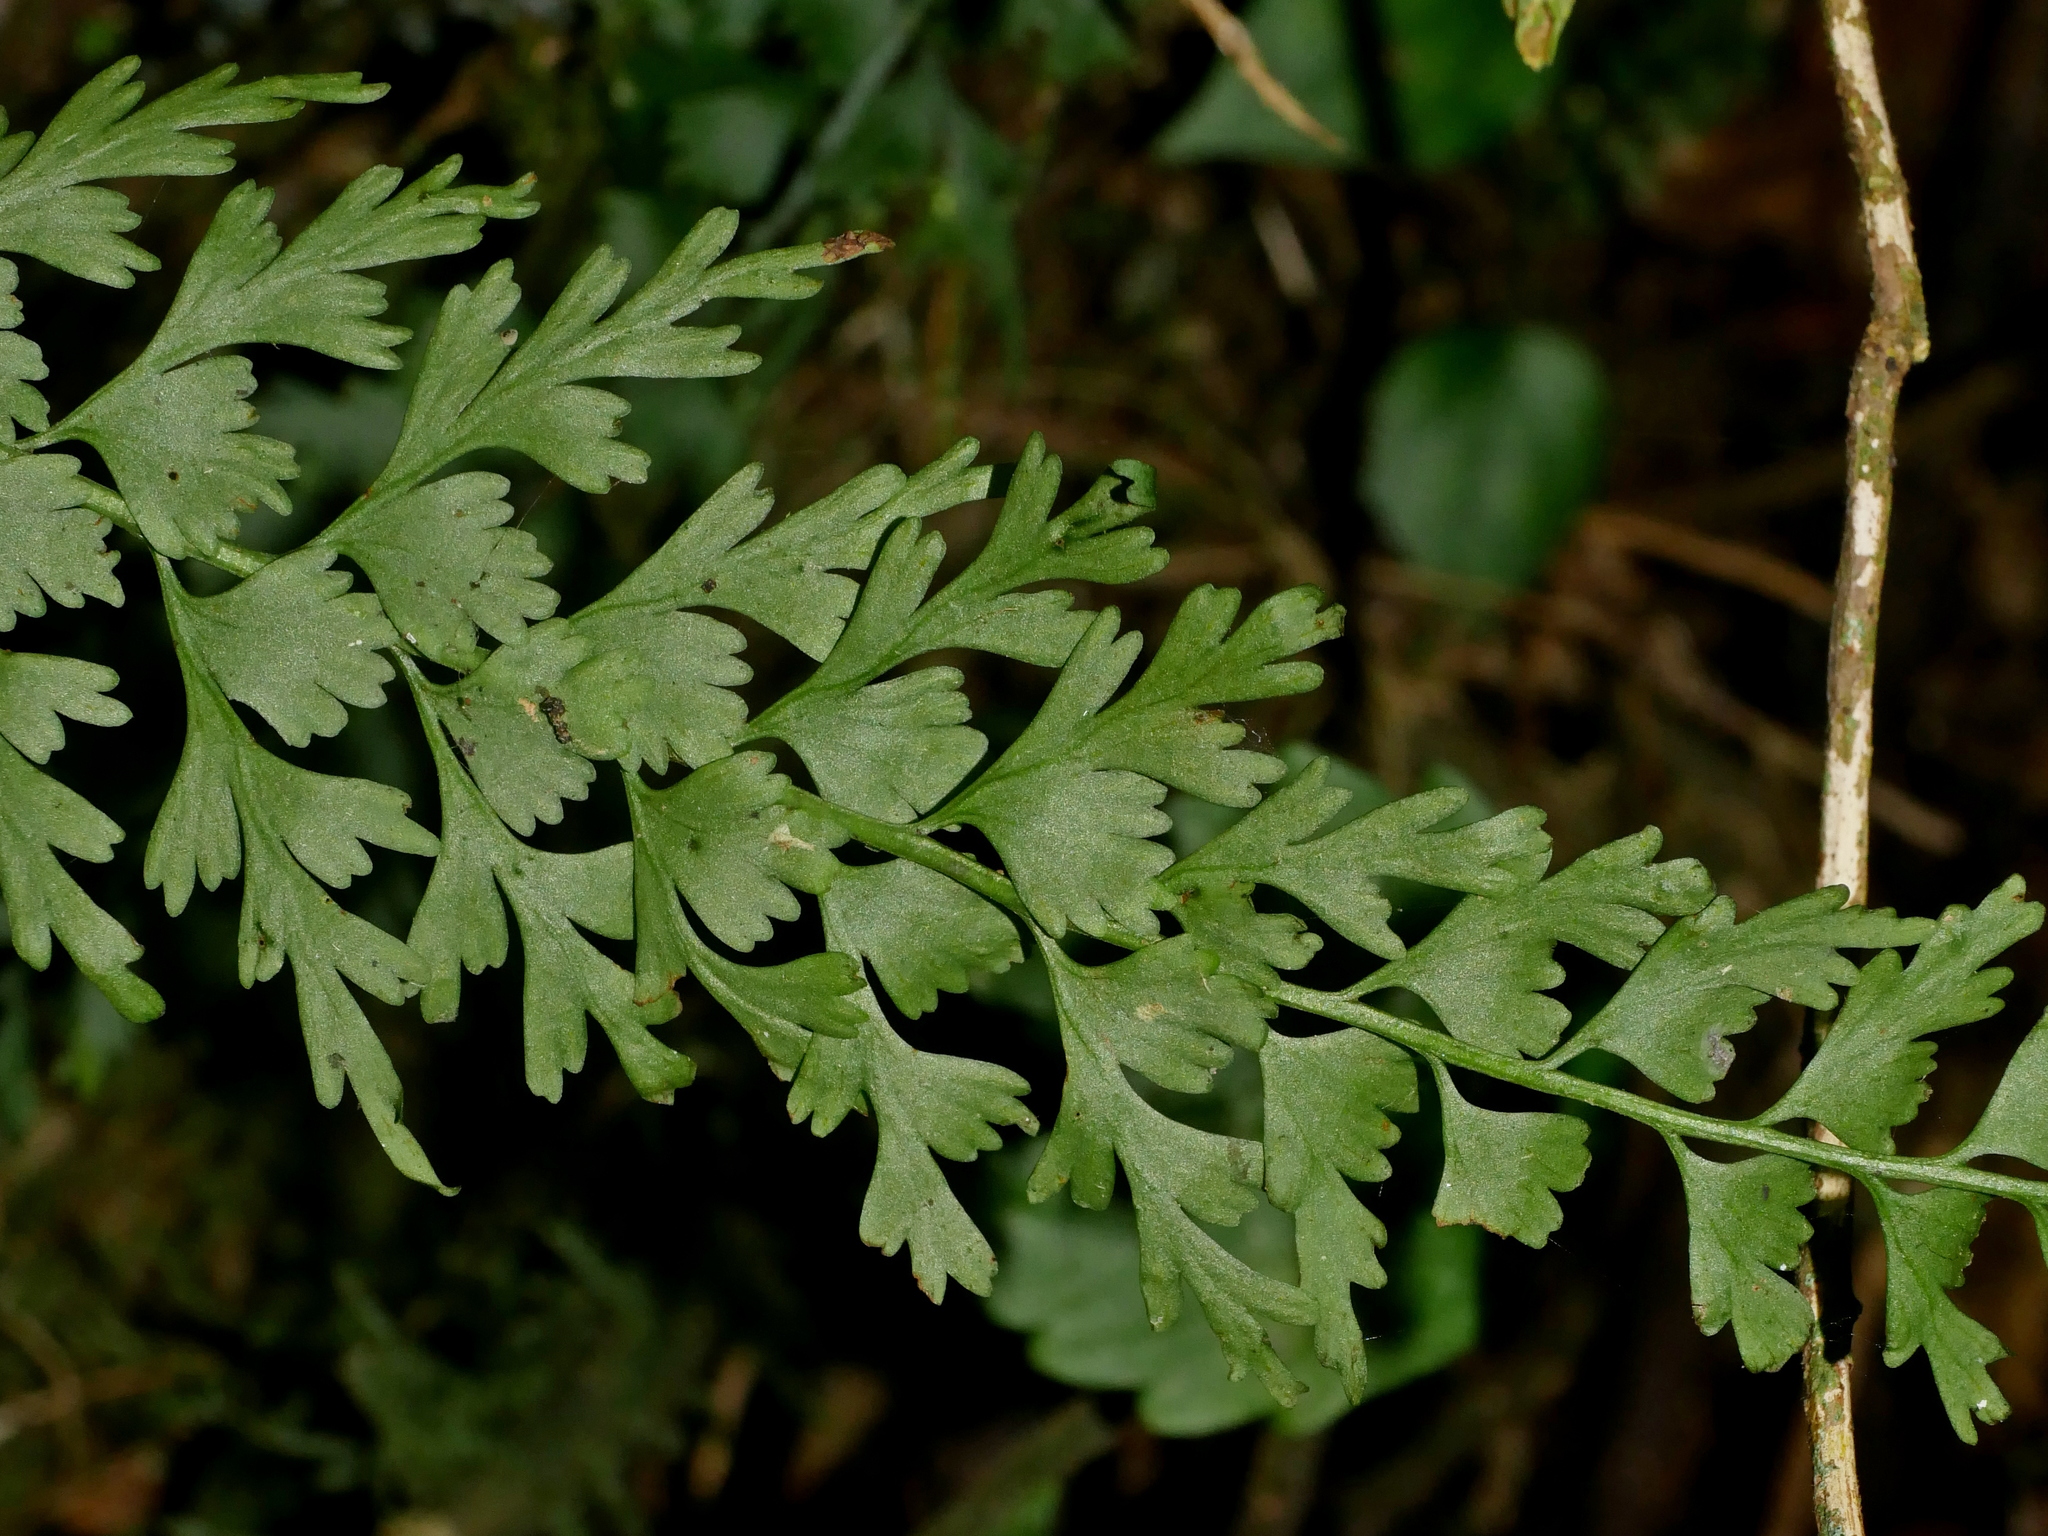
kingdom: Plantae
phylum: Tracheophyta
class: Polypodiopsida
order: Polypodiales
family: Aspleniaceae
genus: Asplenium
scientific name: Asplenium gueinzianum
